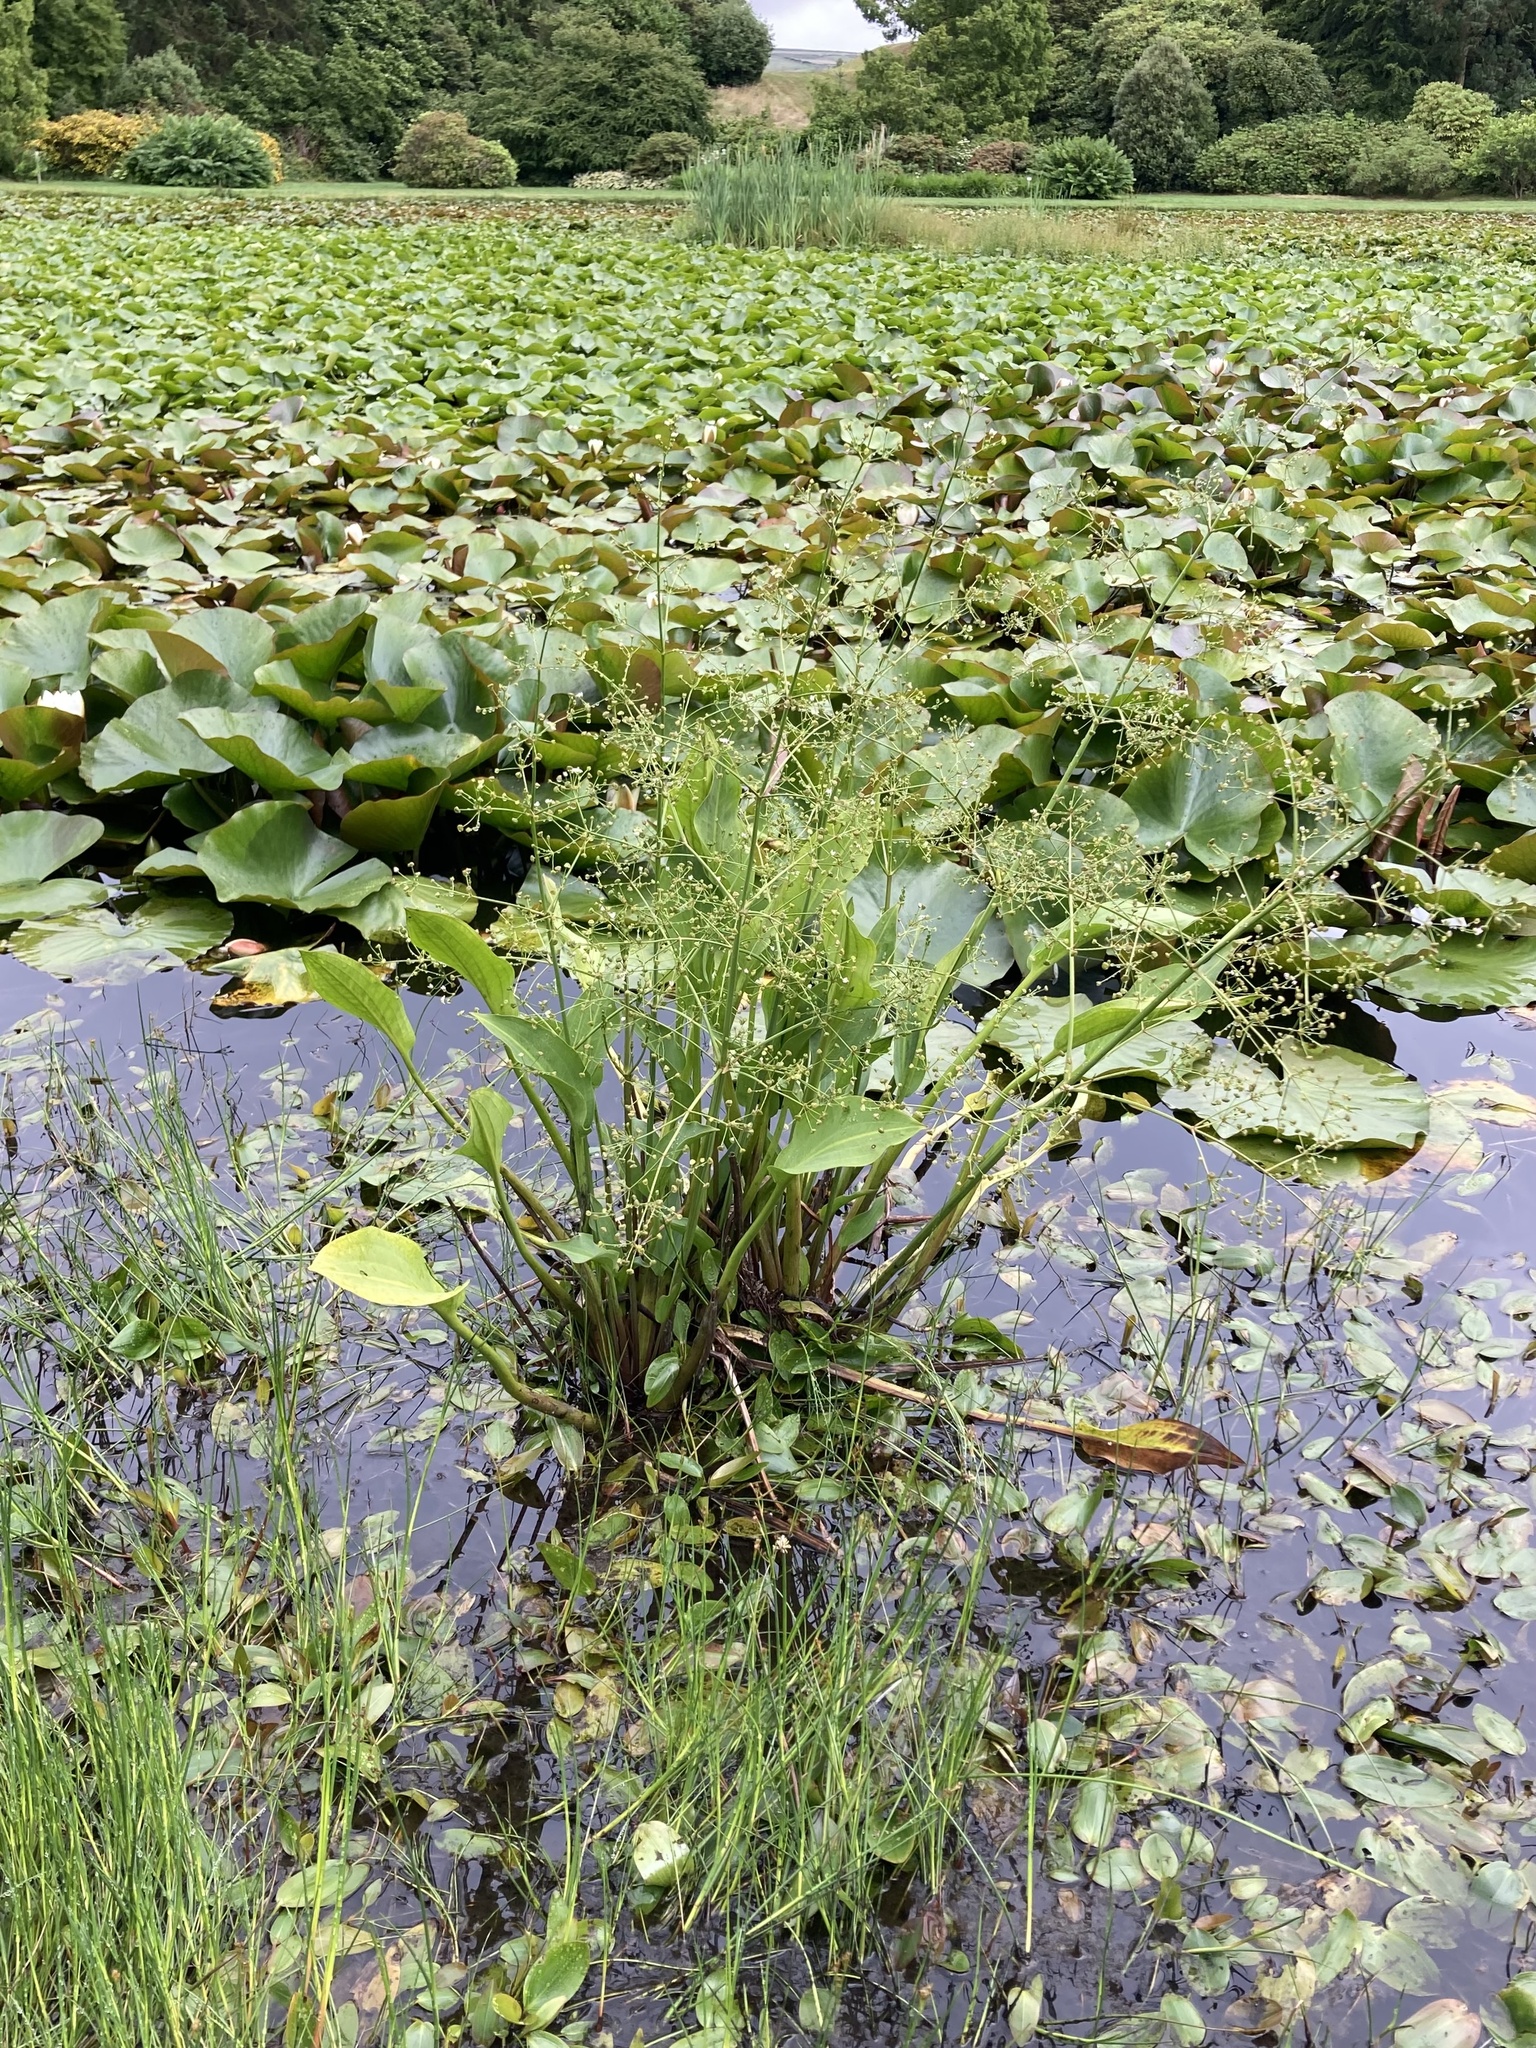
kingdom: Plantae
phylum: Tracheophyta
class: Liliopsida
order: Alismatales
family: Alismataceae
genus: Alisma
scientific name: Alisma plantago-aquatica
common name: Water-plantain
